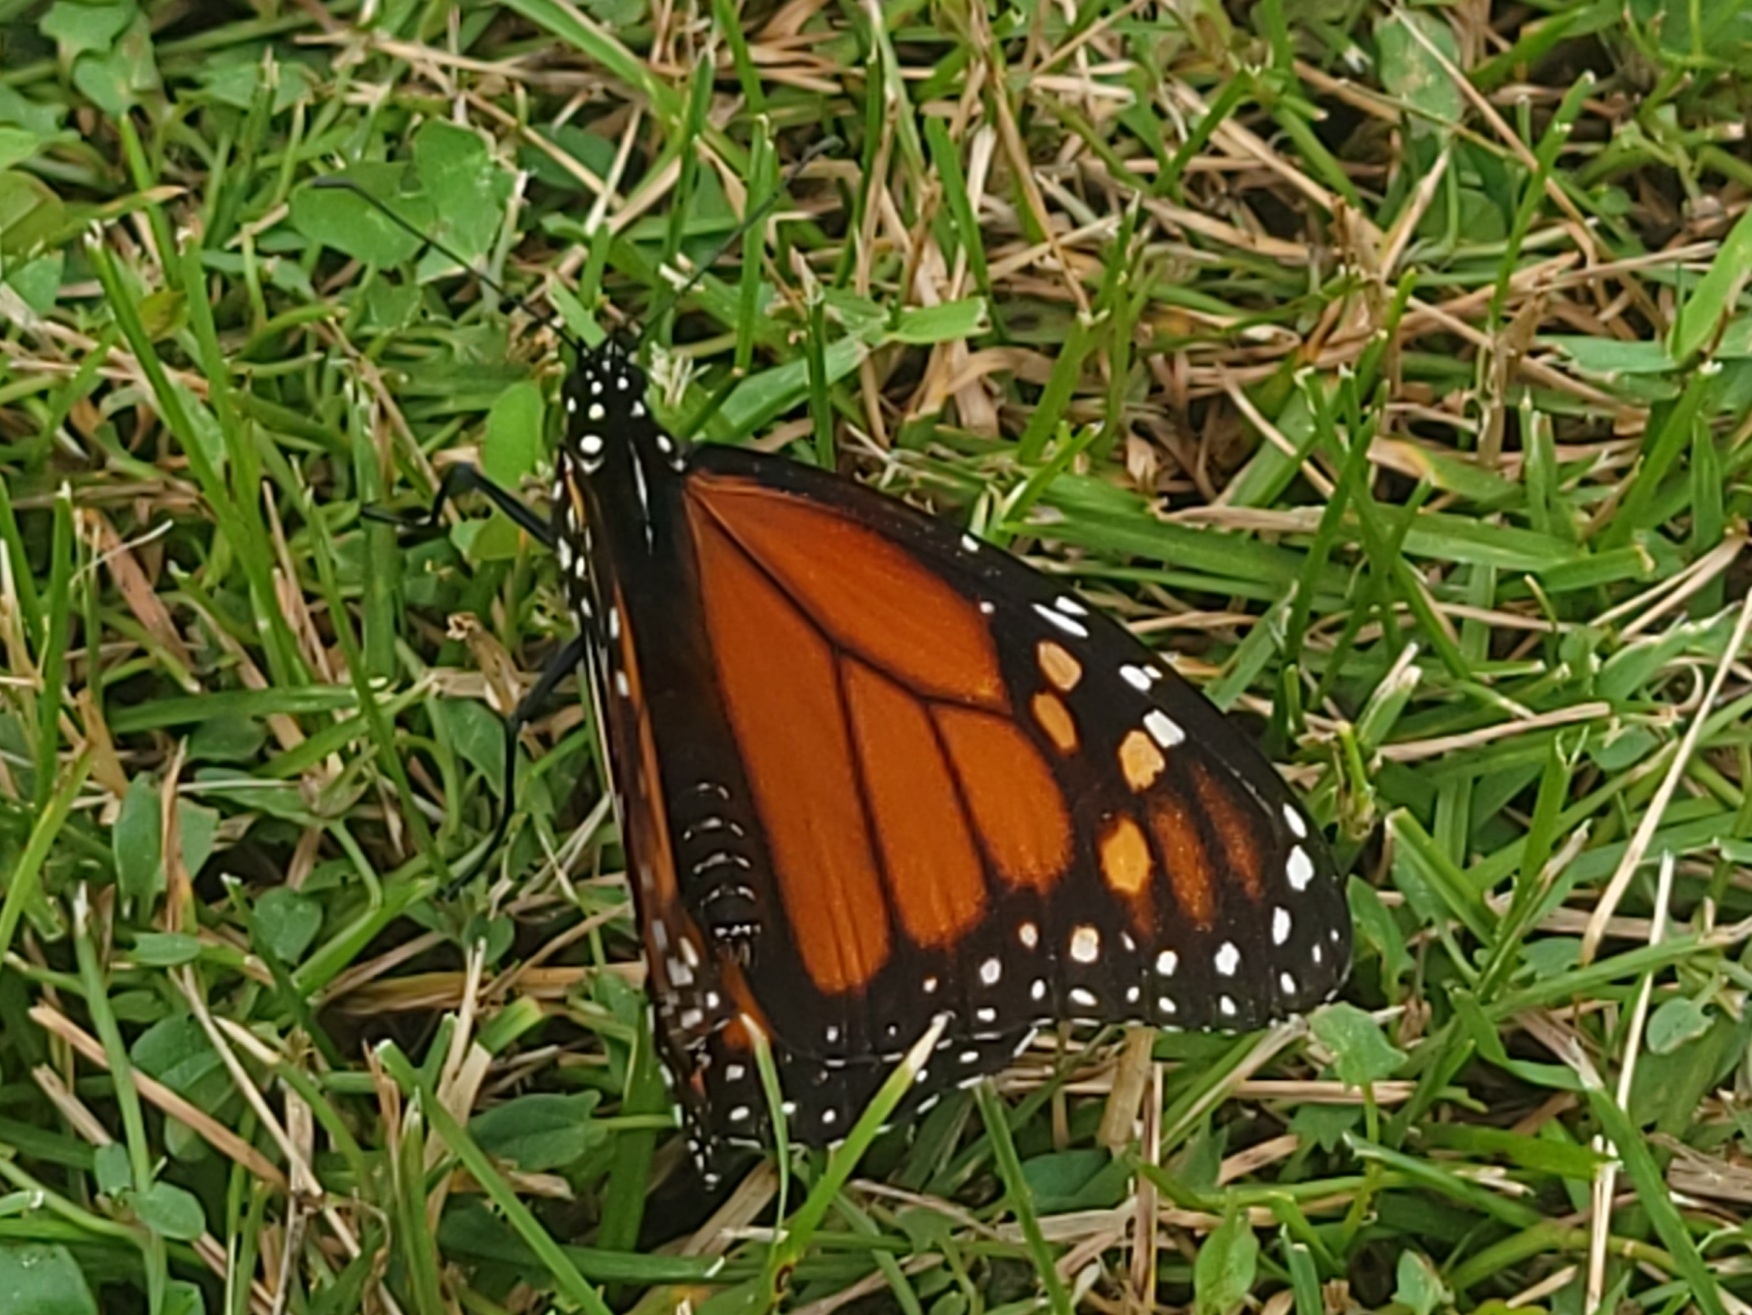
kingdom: Animalia
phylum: Arthropoda
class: Insecta
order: Lepidoptera
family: Nymphalidae
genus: Danaus
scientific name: Danaus plexippus
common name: Monarch
